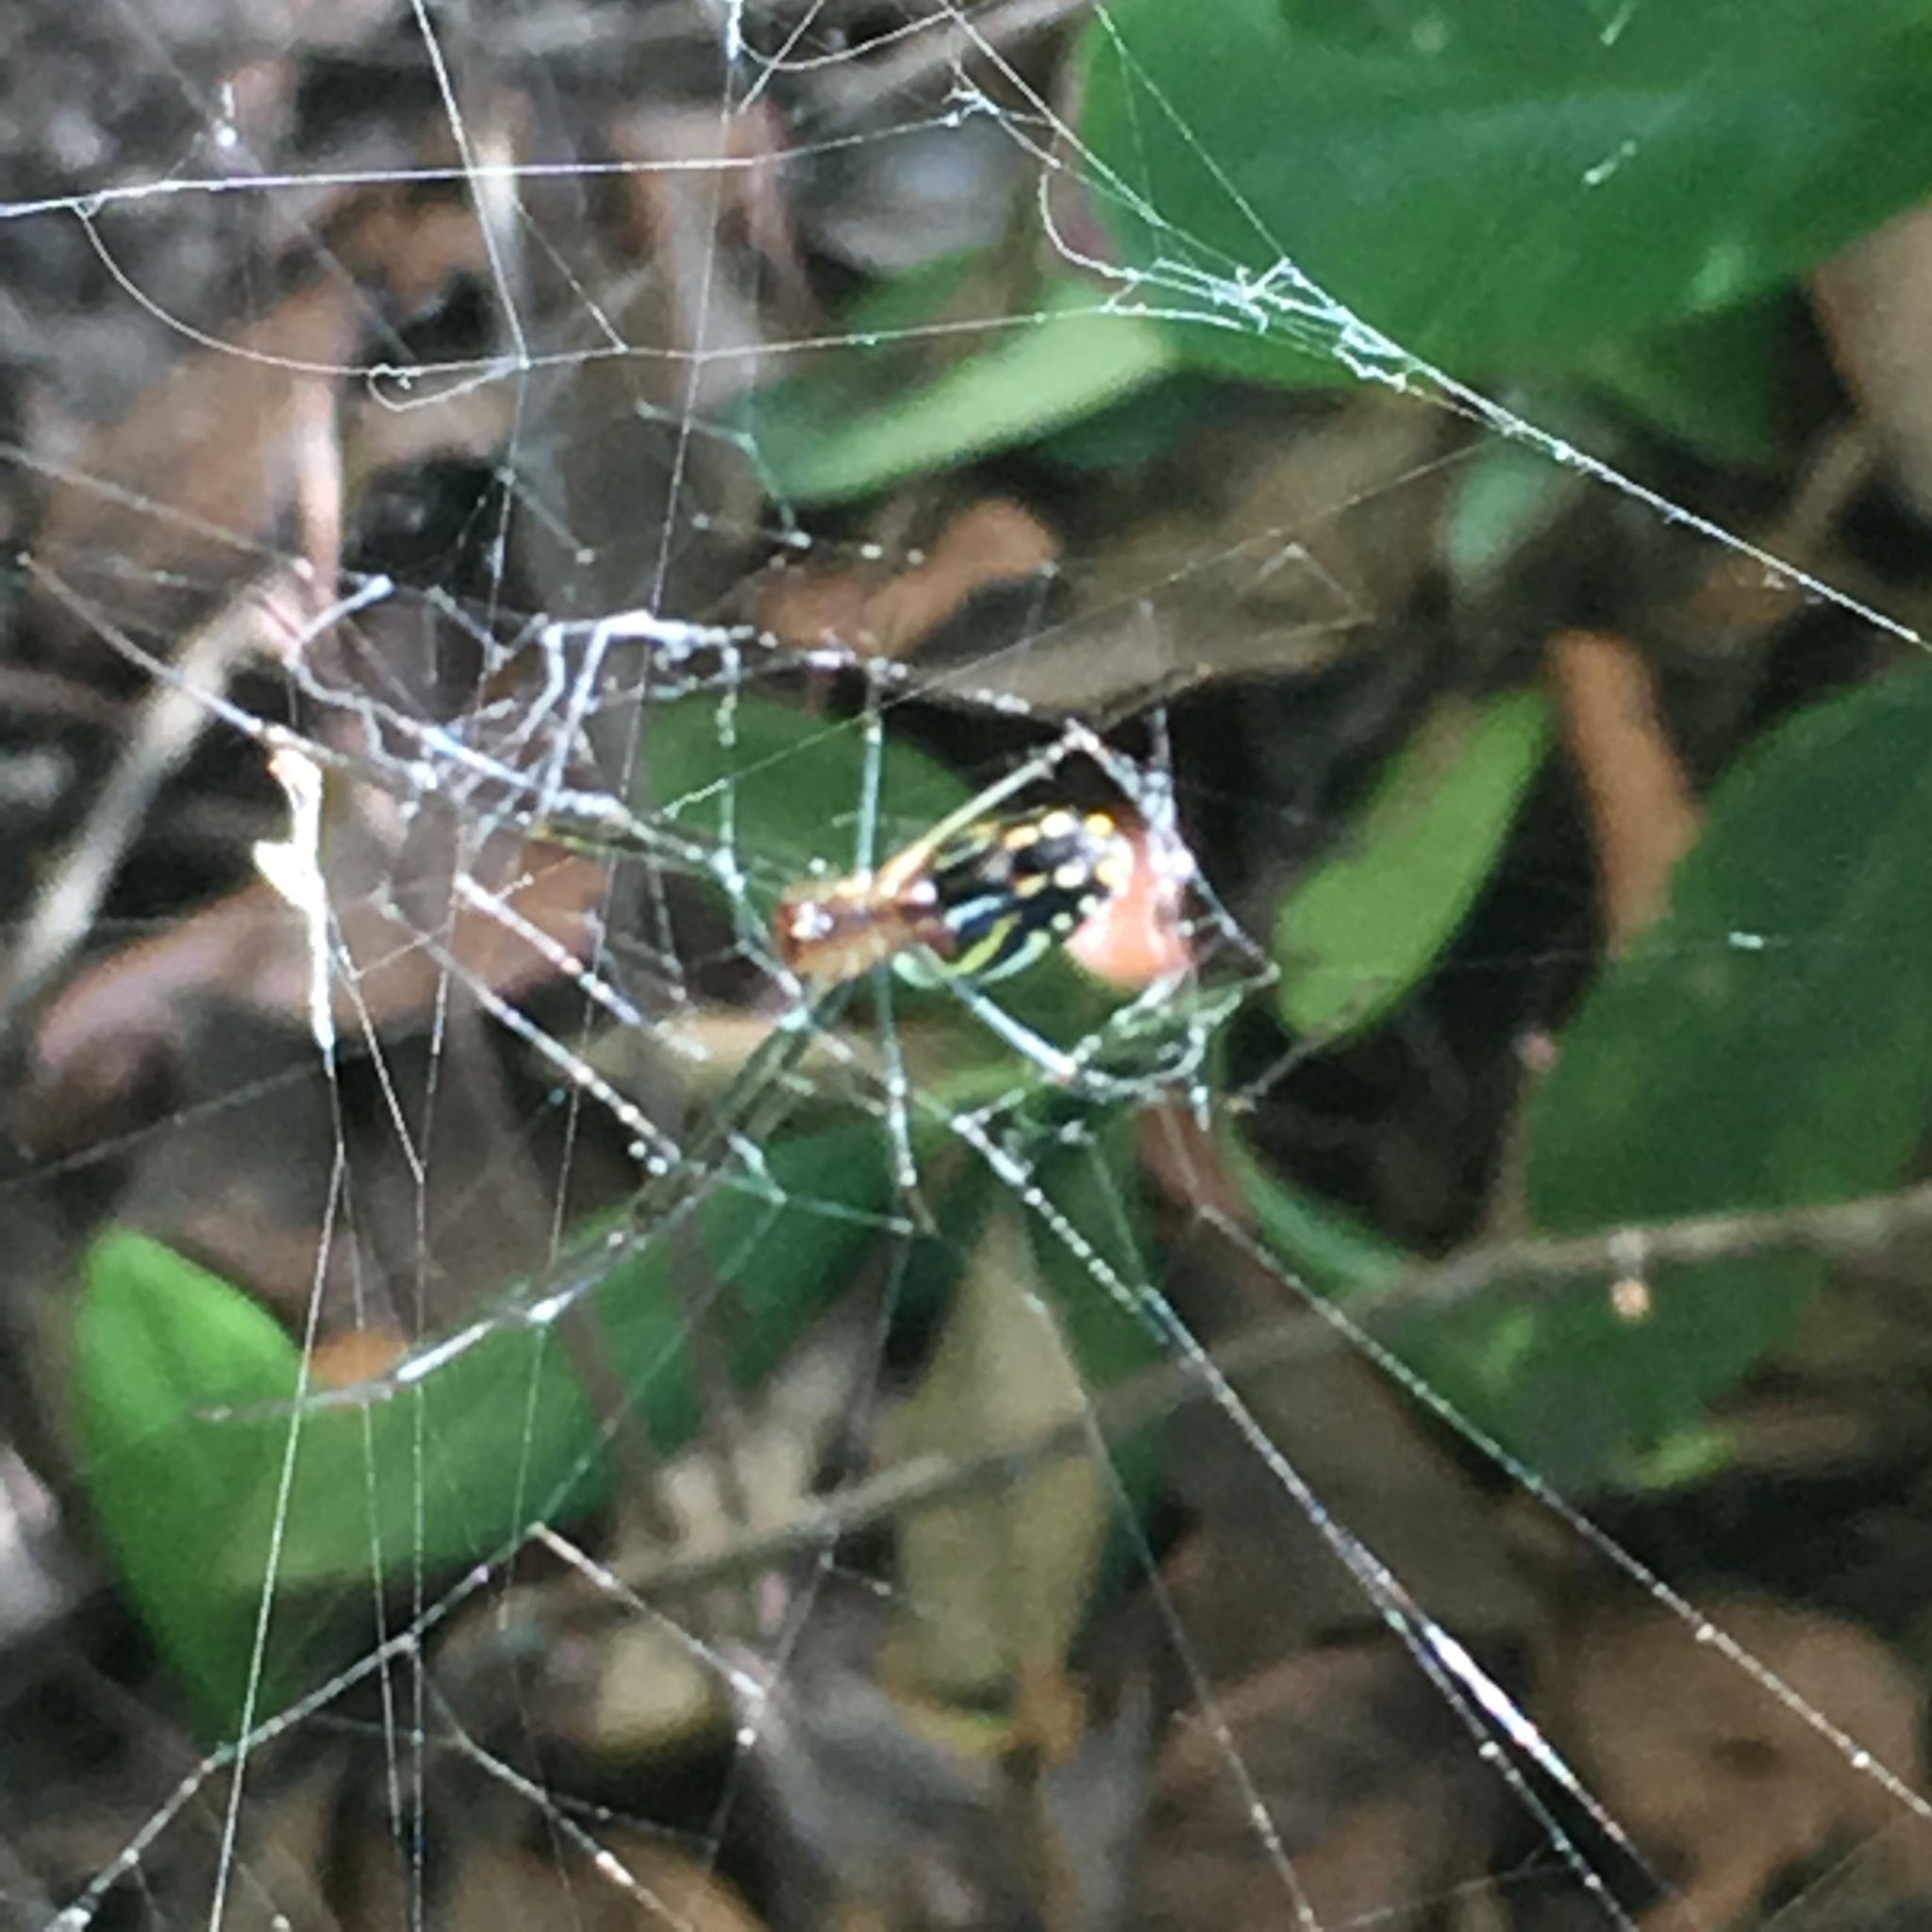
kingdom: Animalia
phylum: Arthropoda
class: Arachnida
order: Araneae
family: Tetragnathidae
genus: Leucauge
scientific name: Leucauge argyra
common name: Longjawed orb weavers
